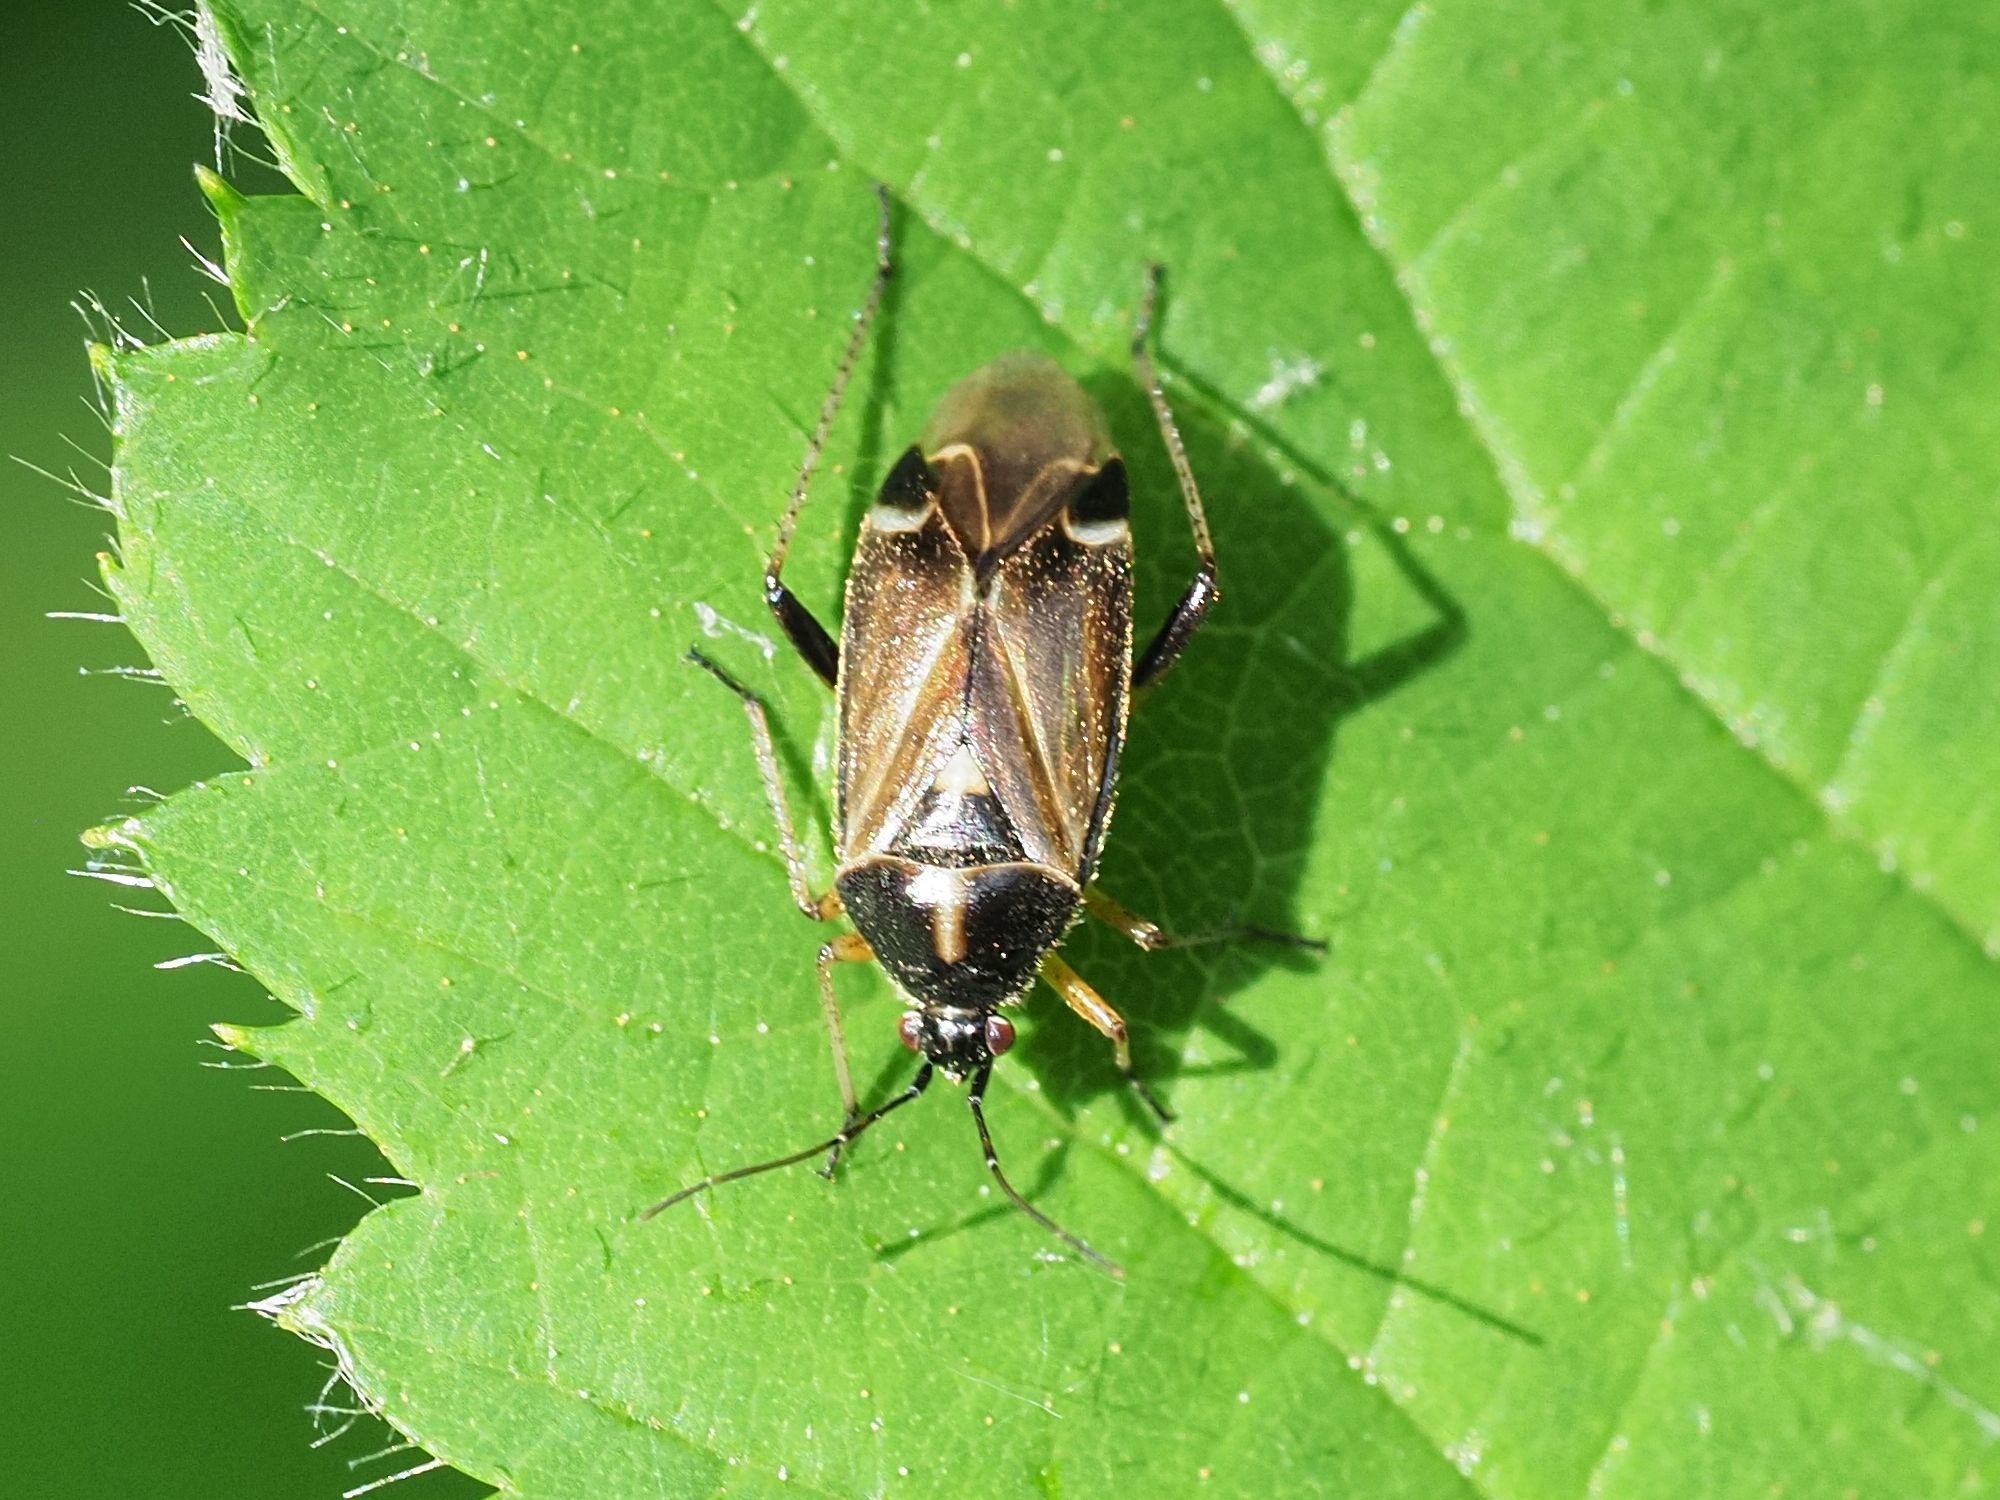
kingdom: Animalia
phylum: Arthropoda
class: Insecta
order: Hemiptera
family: Miridae
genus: Harpocera
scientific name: Harpocera thoracica
